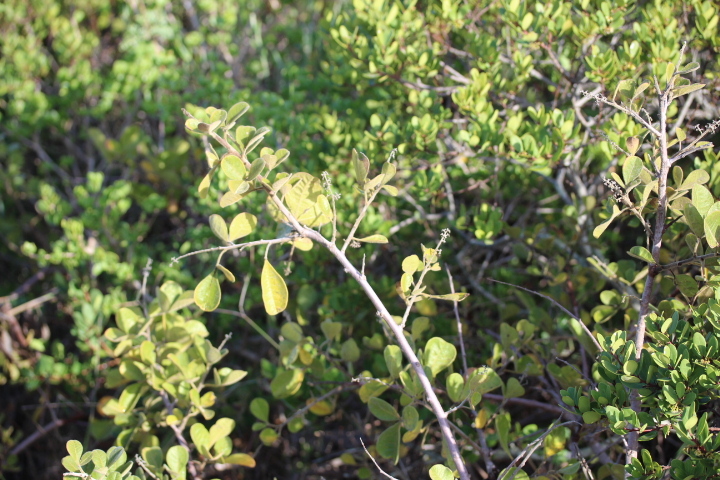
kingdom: Plantae
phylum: Tracheophyta
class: Magnoliopsida
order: Sapindales
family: Anacardiaceae
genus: Searsia
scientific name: Searsia laevigata
